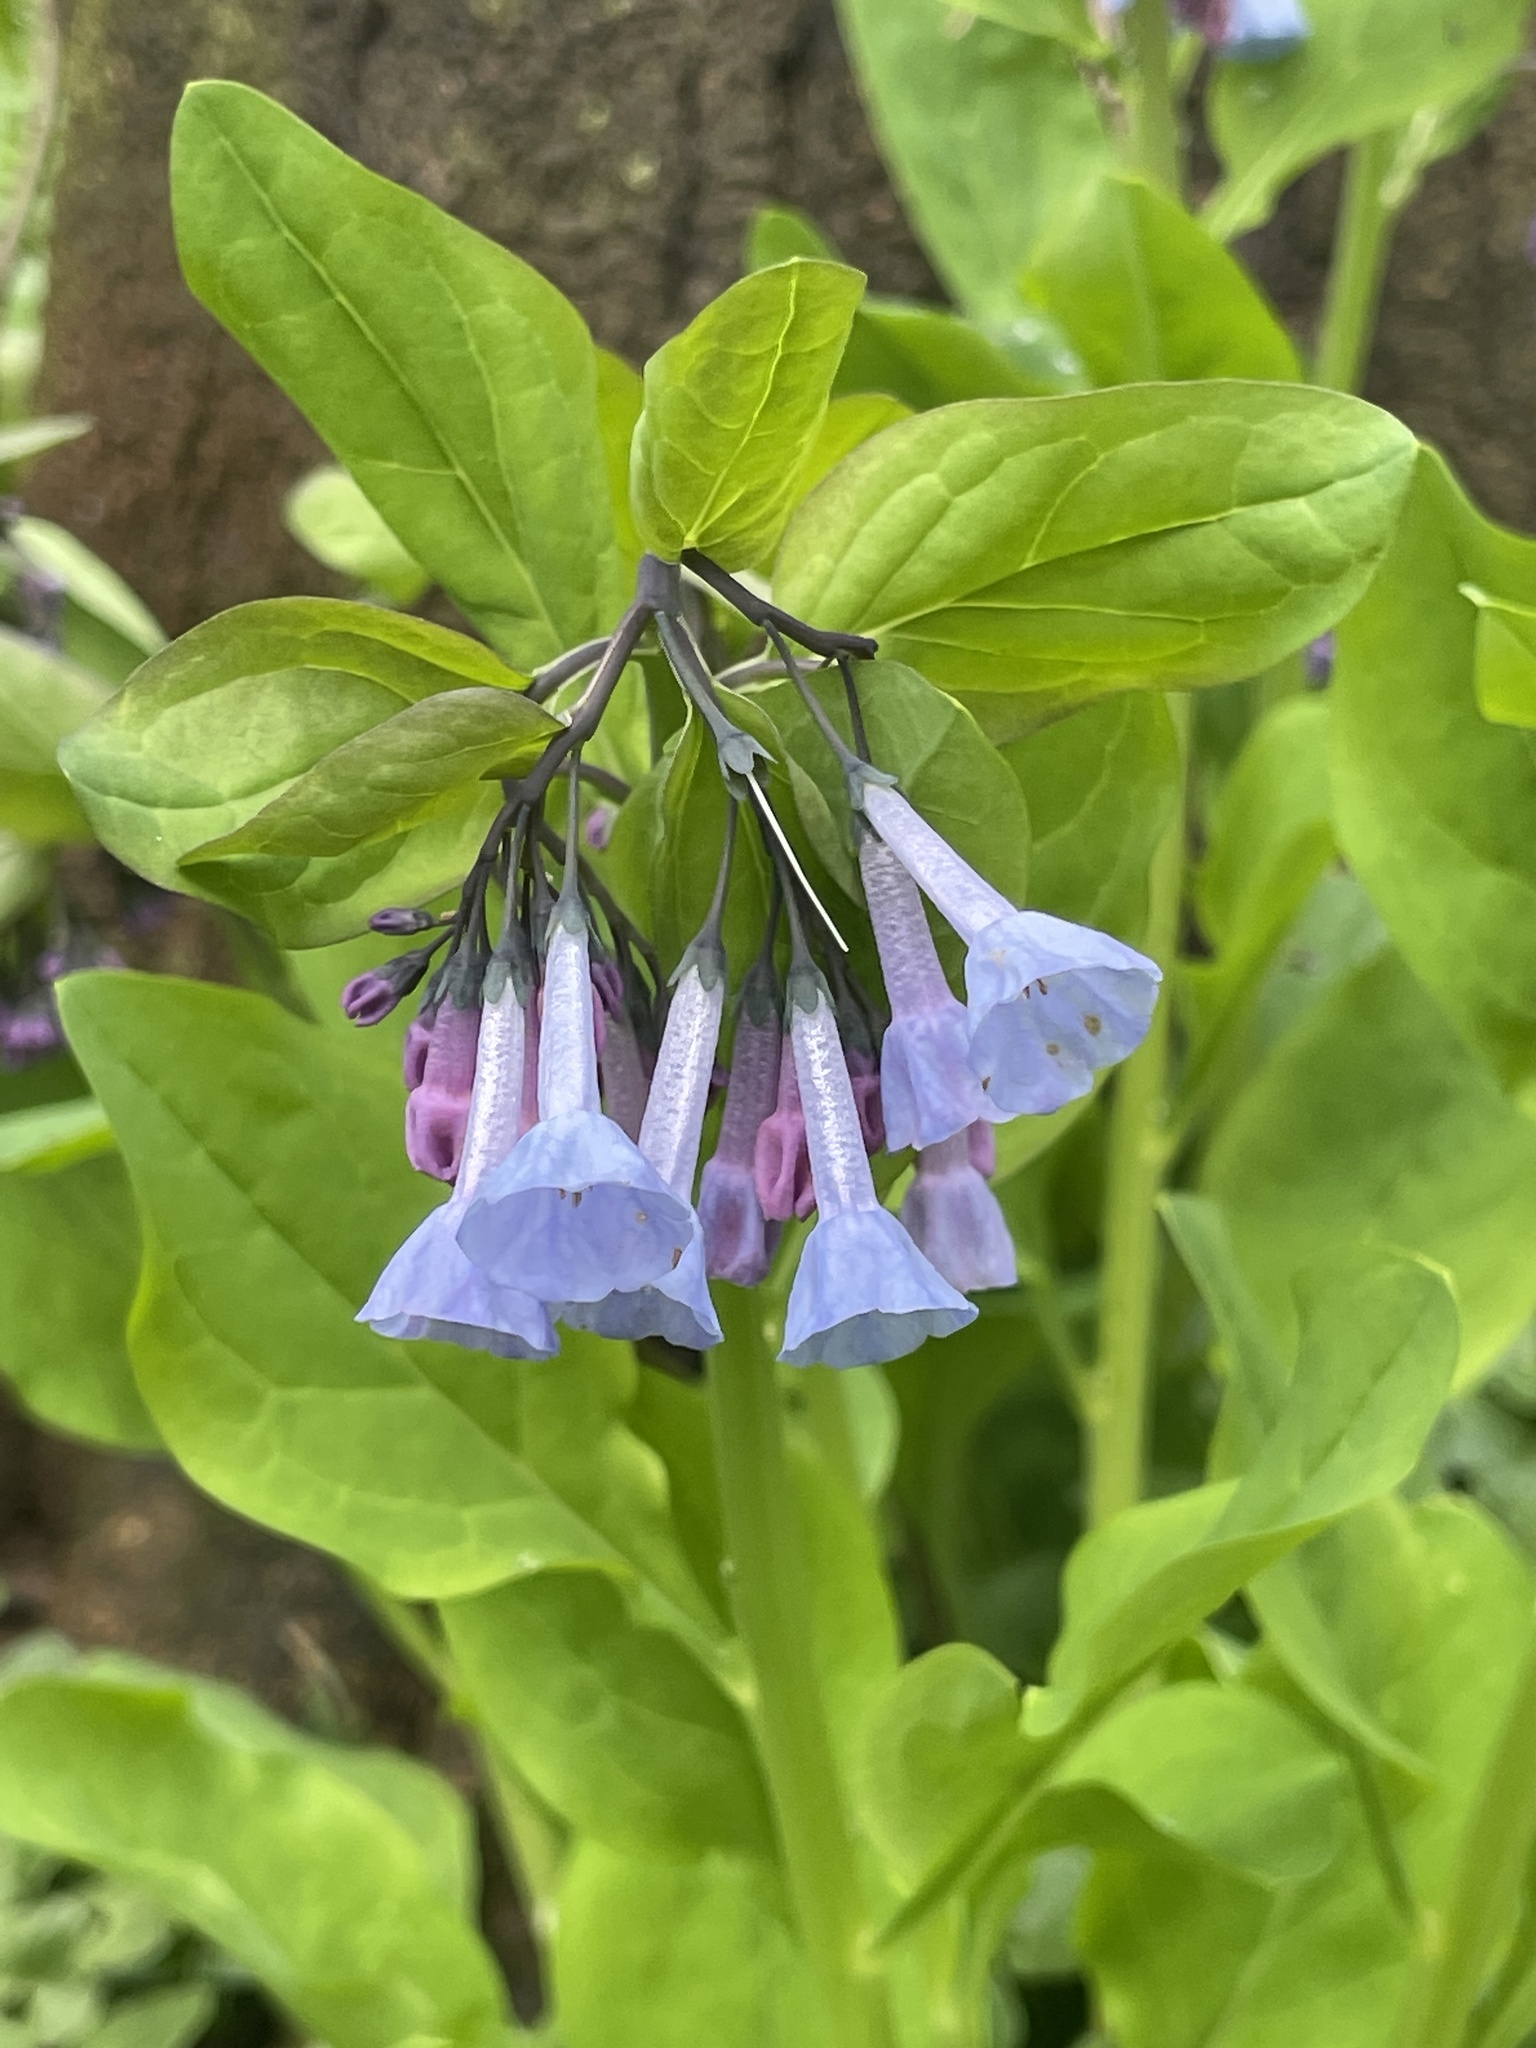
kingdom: Plantae
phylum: Tracheophyta
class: Magnoliopsida
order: Boraginales
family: Boraginaceae
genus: Mertensia
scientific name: Mertensia virginica
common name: Virginia bluebells
